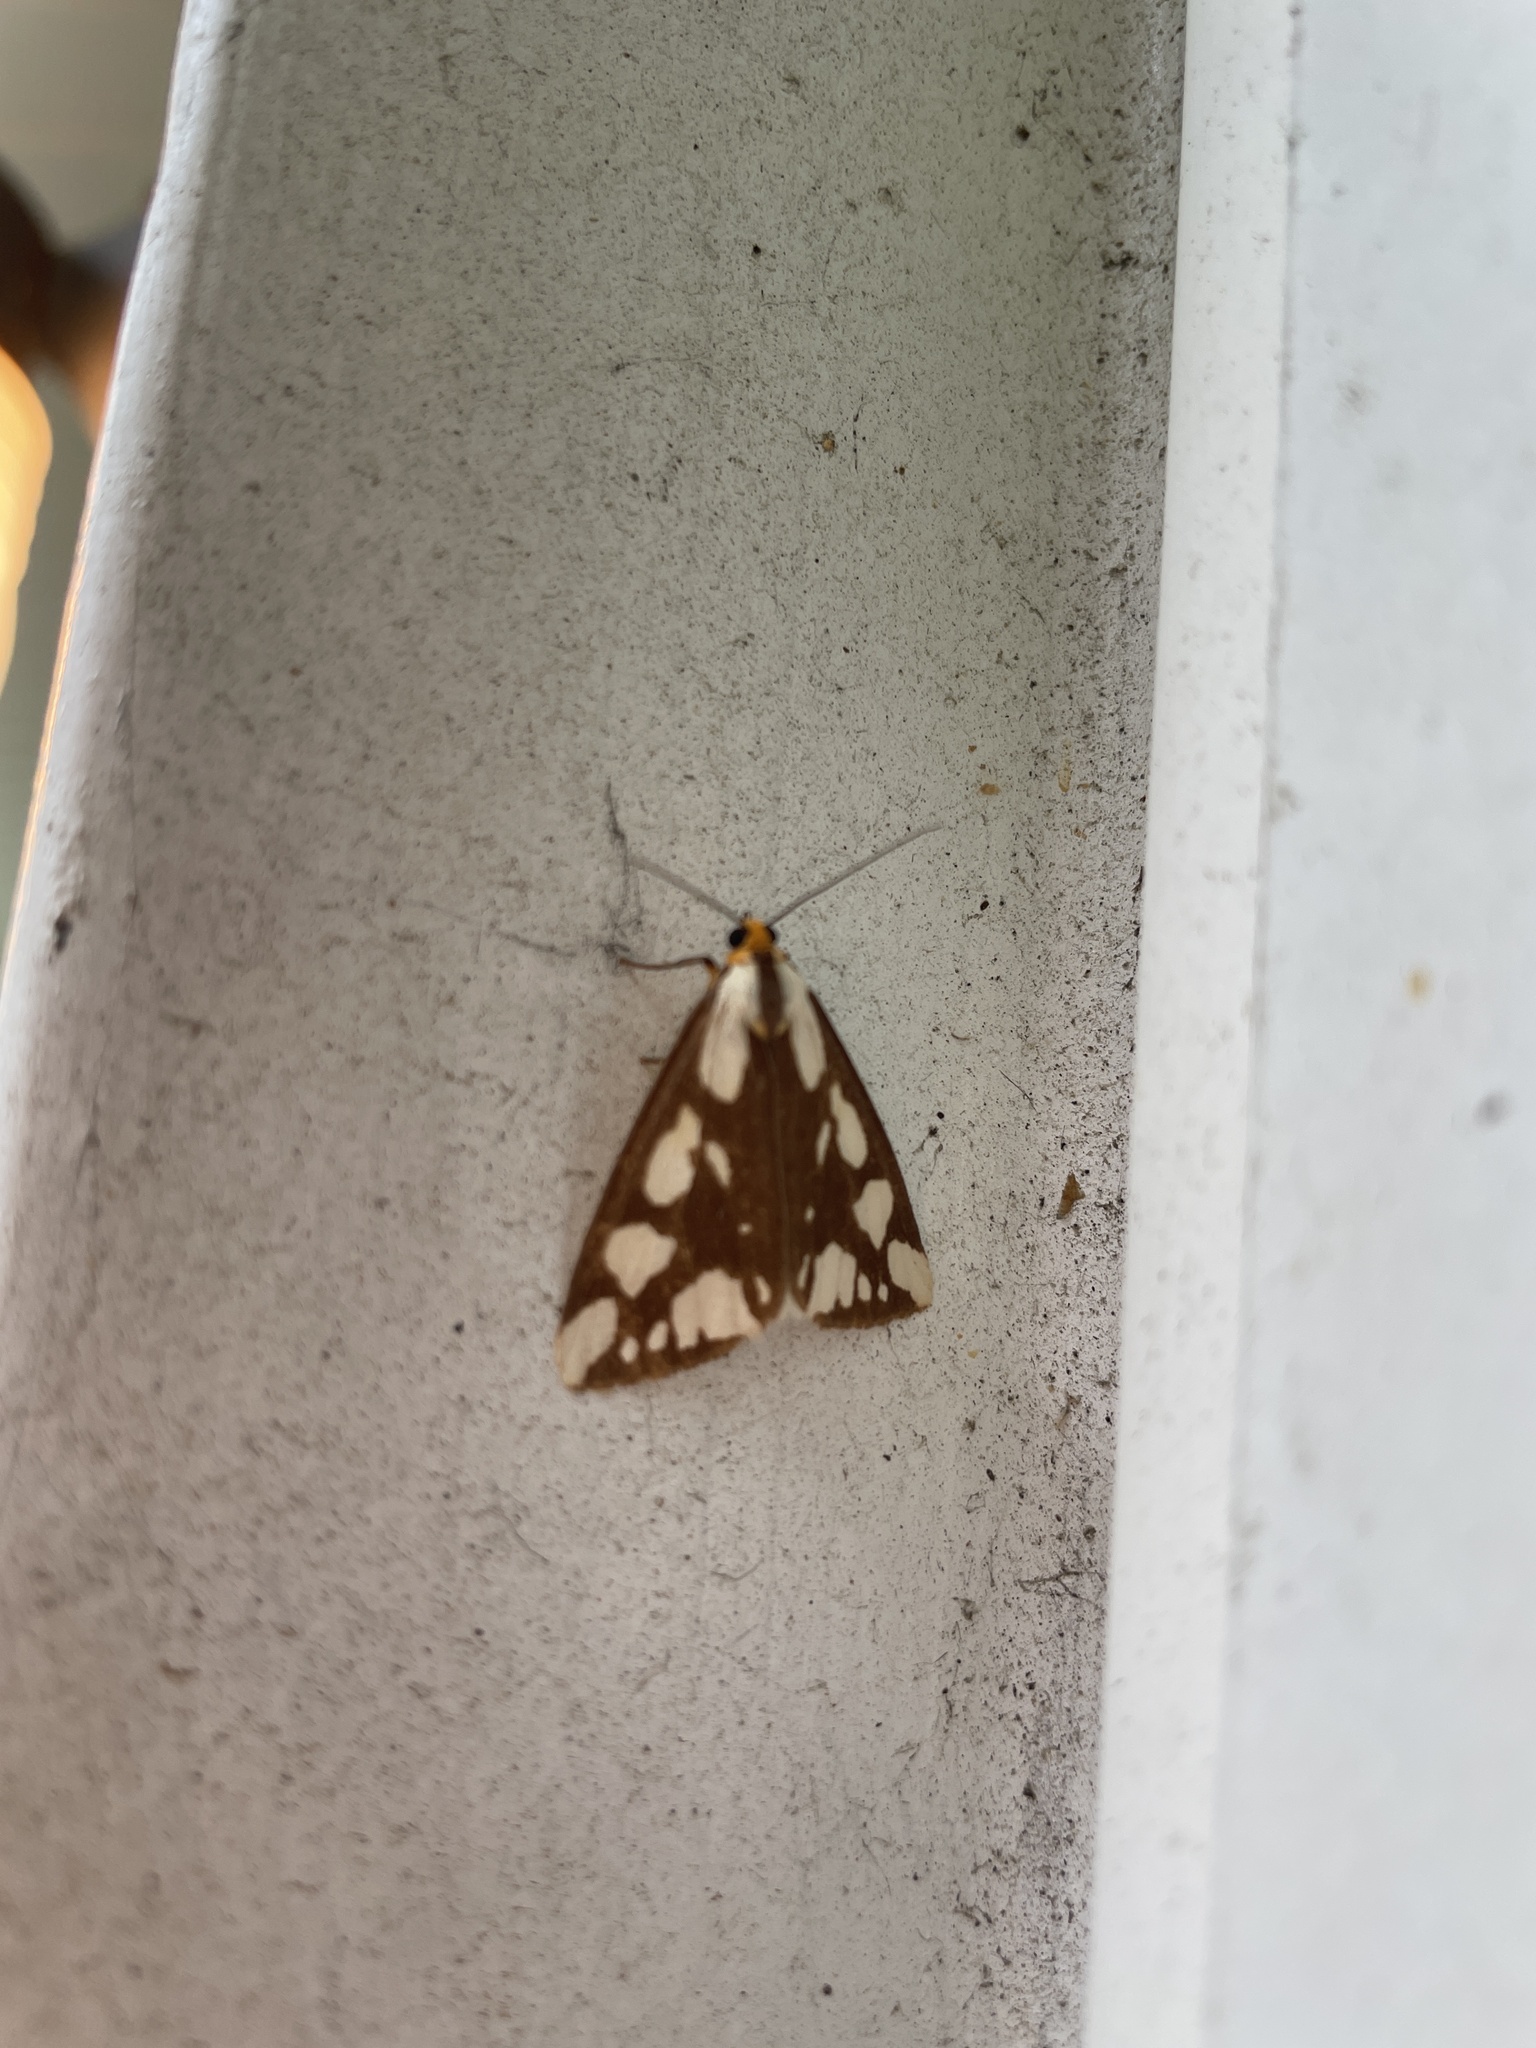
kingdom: Animalia
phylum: Arthropoda
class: Insecta
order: Lepidoptera
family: Erebidae
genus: Haploa
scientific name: Haploa confusa
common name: Confused haploa moth
